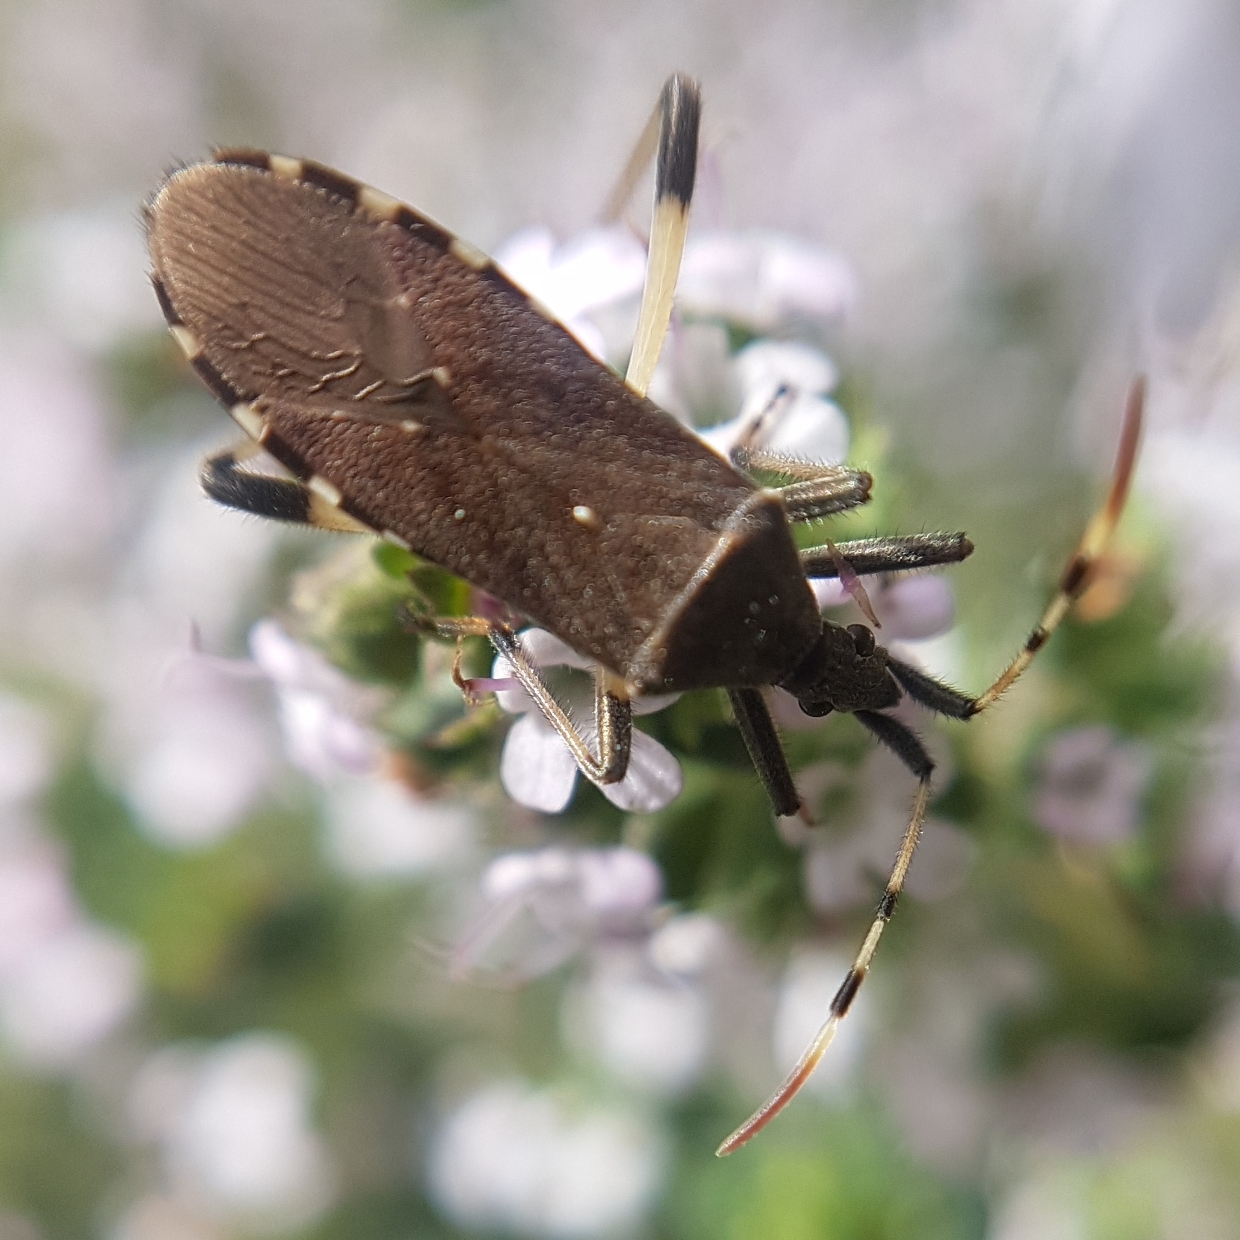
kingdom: Animalia
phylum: Arthropoda
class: Insecta
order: Hemiptera
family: Stenocephalidae
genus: Dicranocephalus
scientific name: Dicranocephalus albipes
